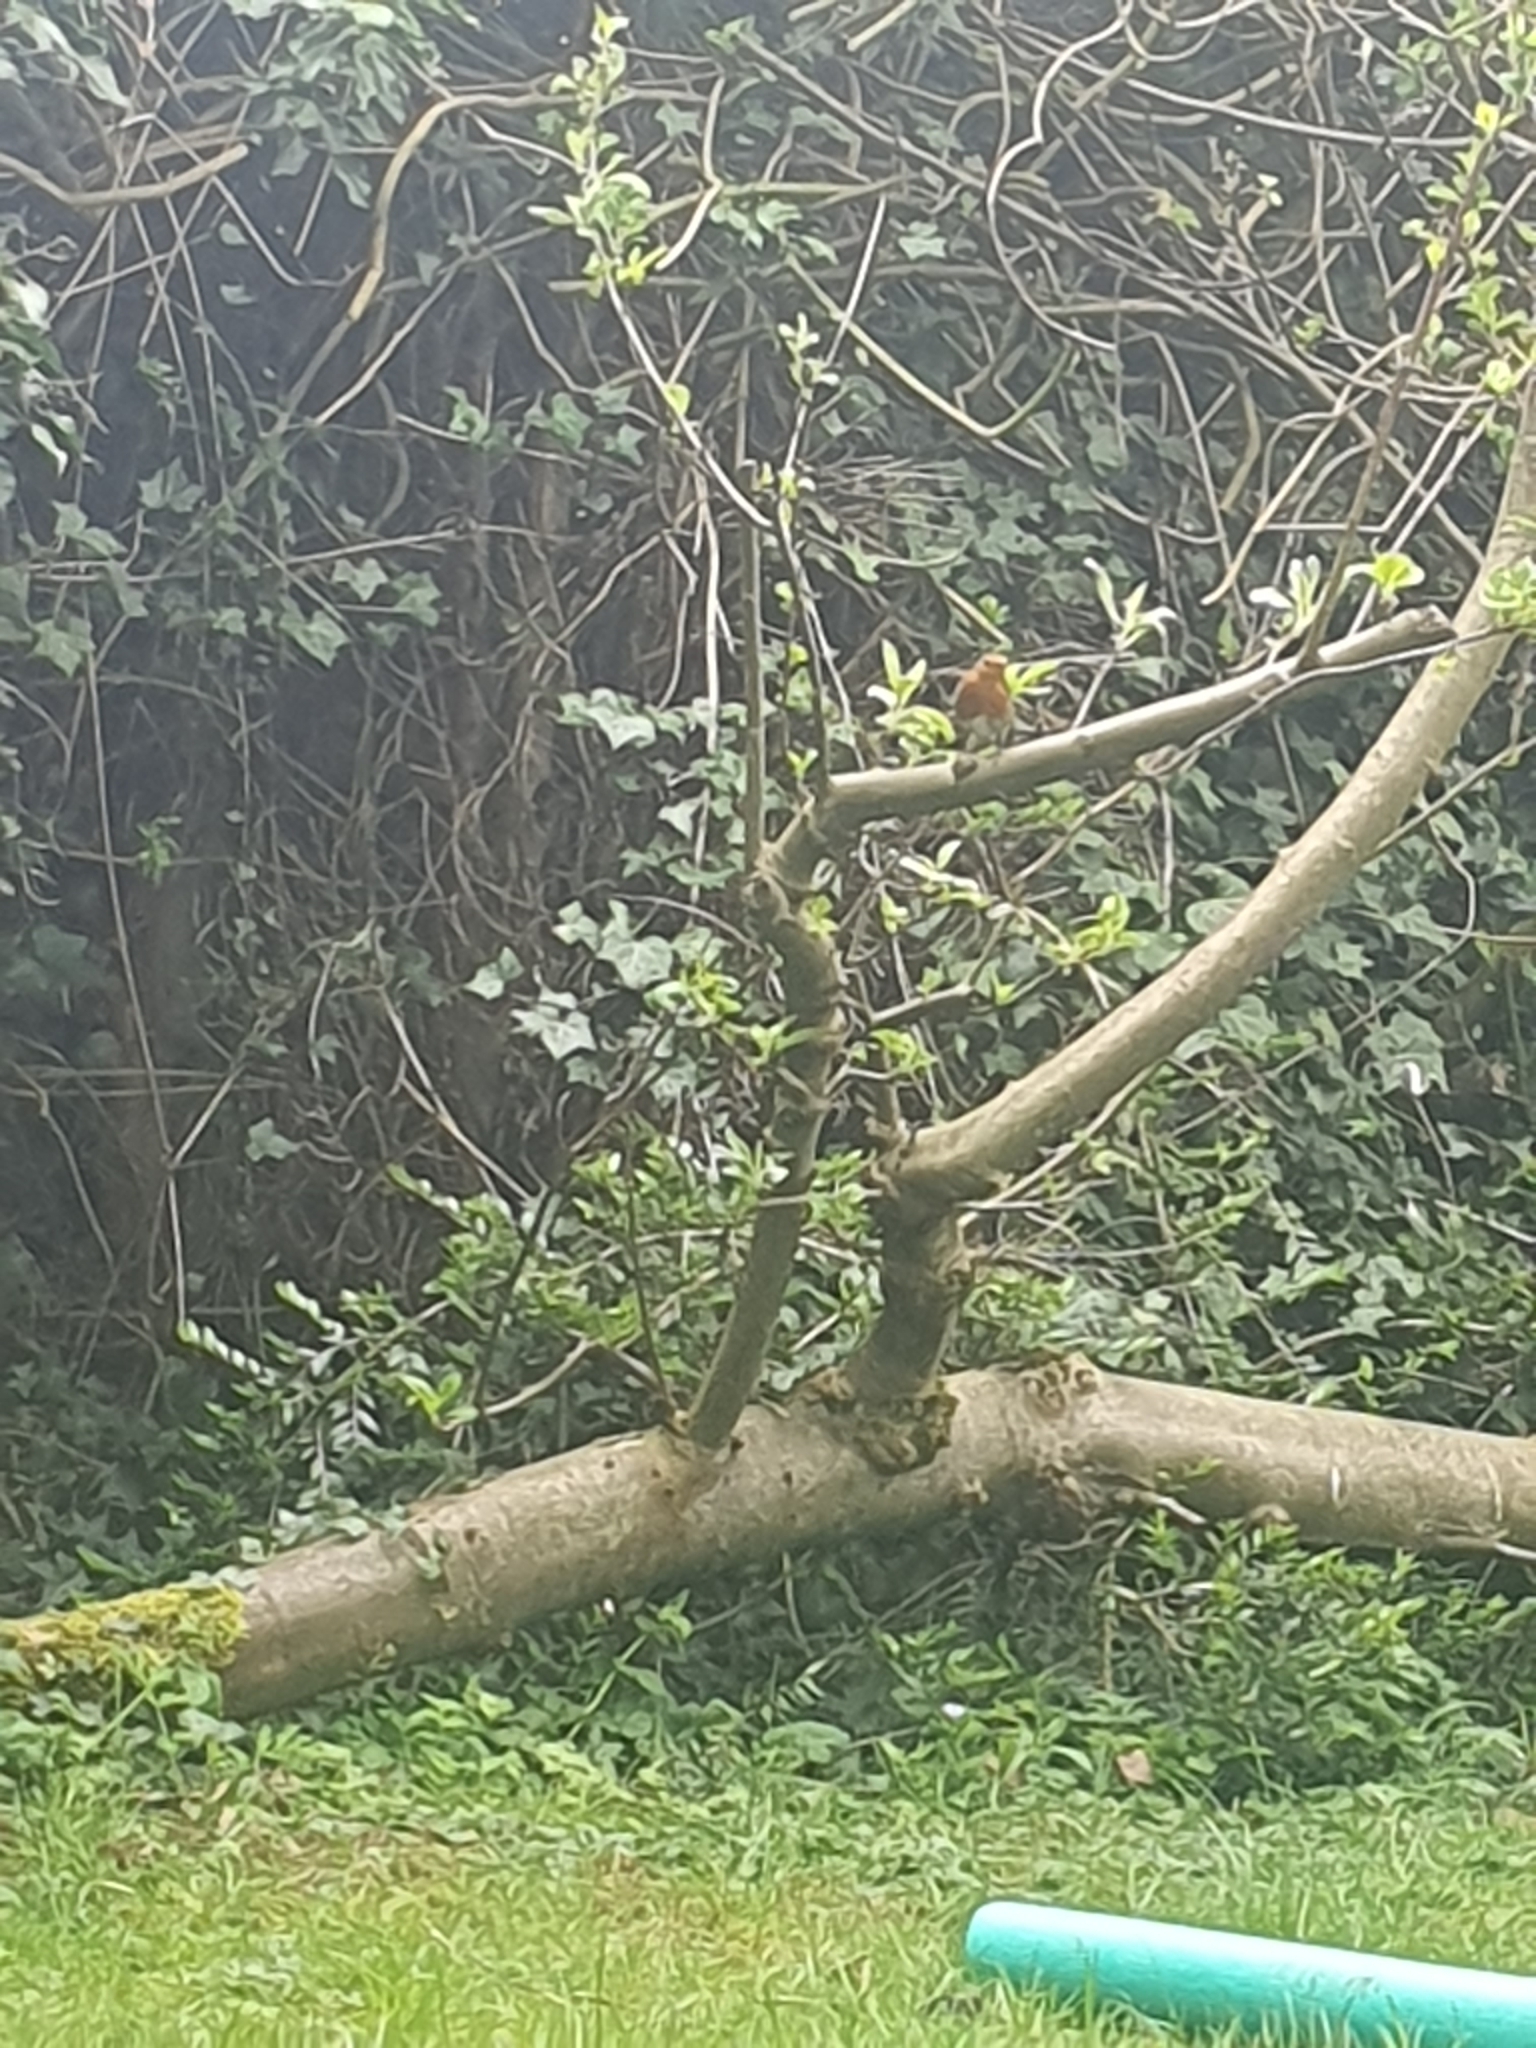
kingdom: Animalia
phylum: Chordata
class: Aves
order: Passeriformes
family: Muscicapidae
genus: Erithacus
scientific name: Erithacus rubecula
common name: European robin
